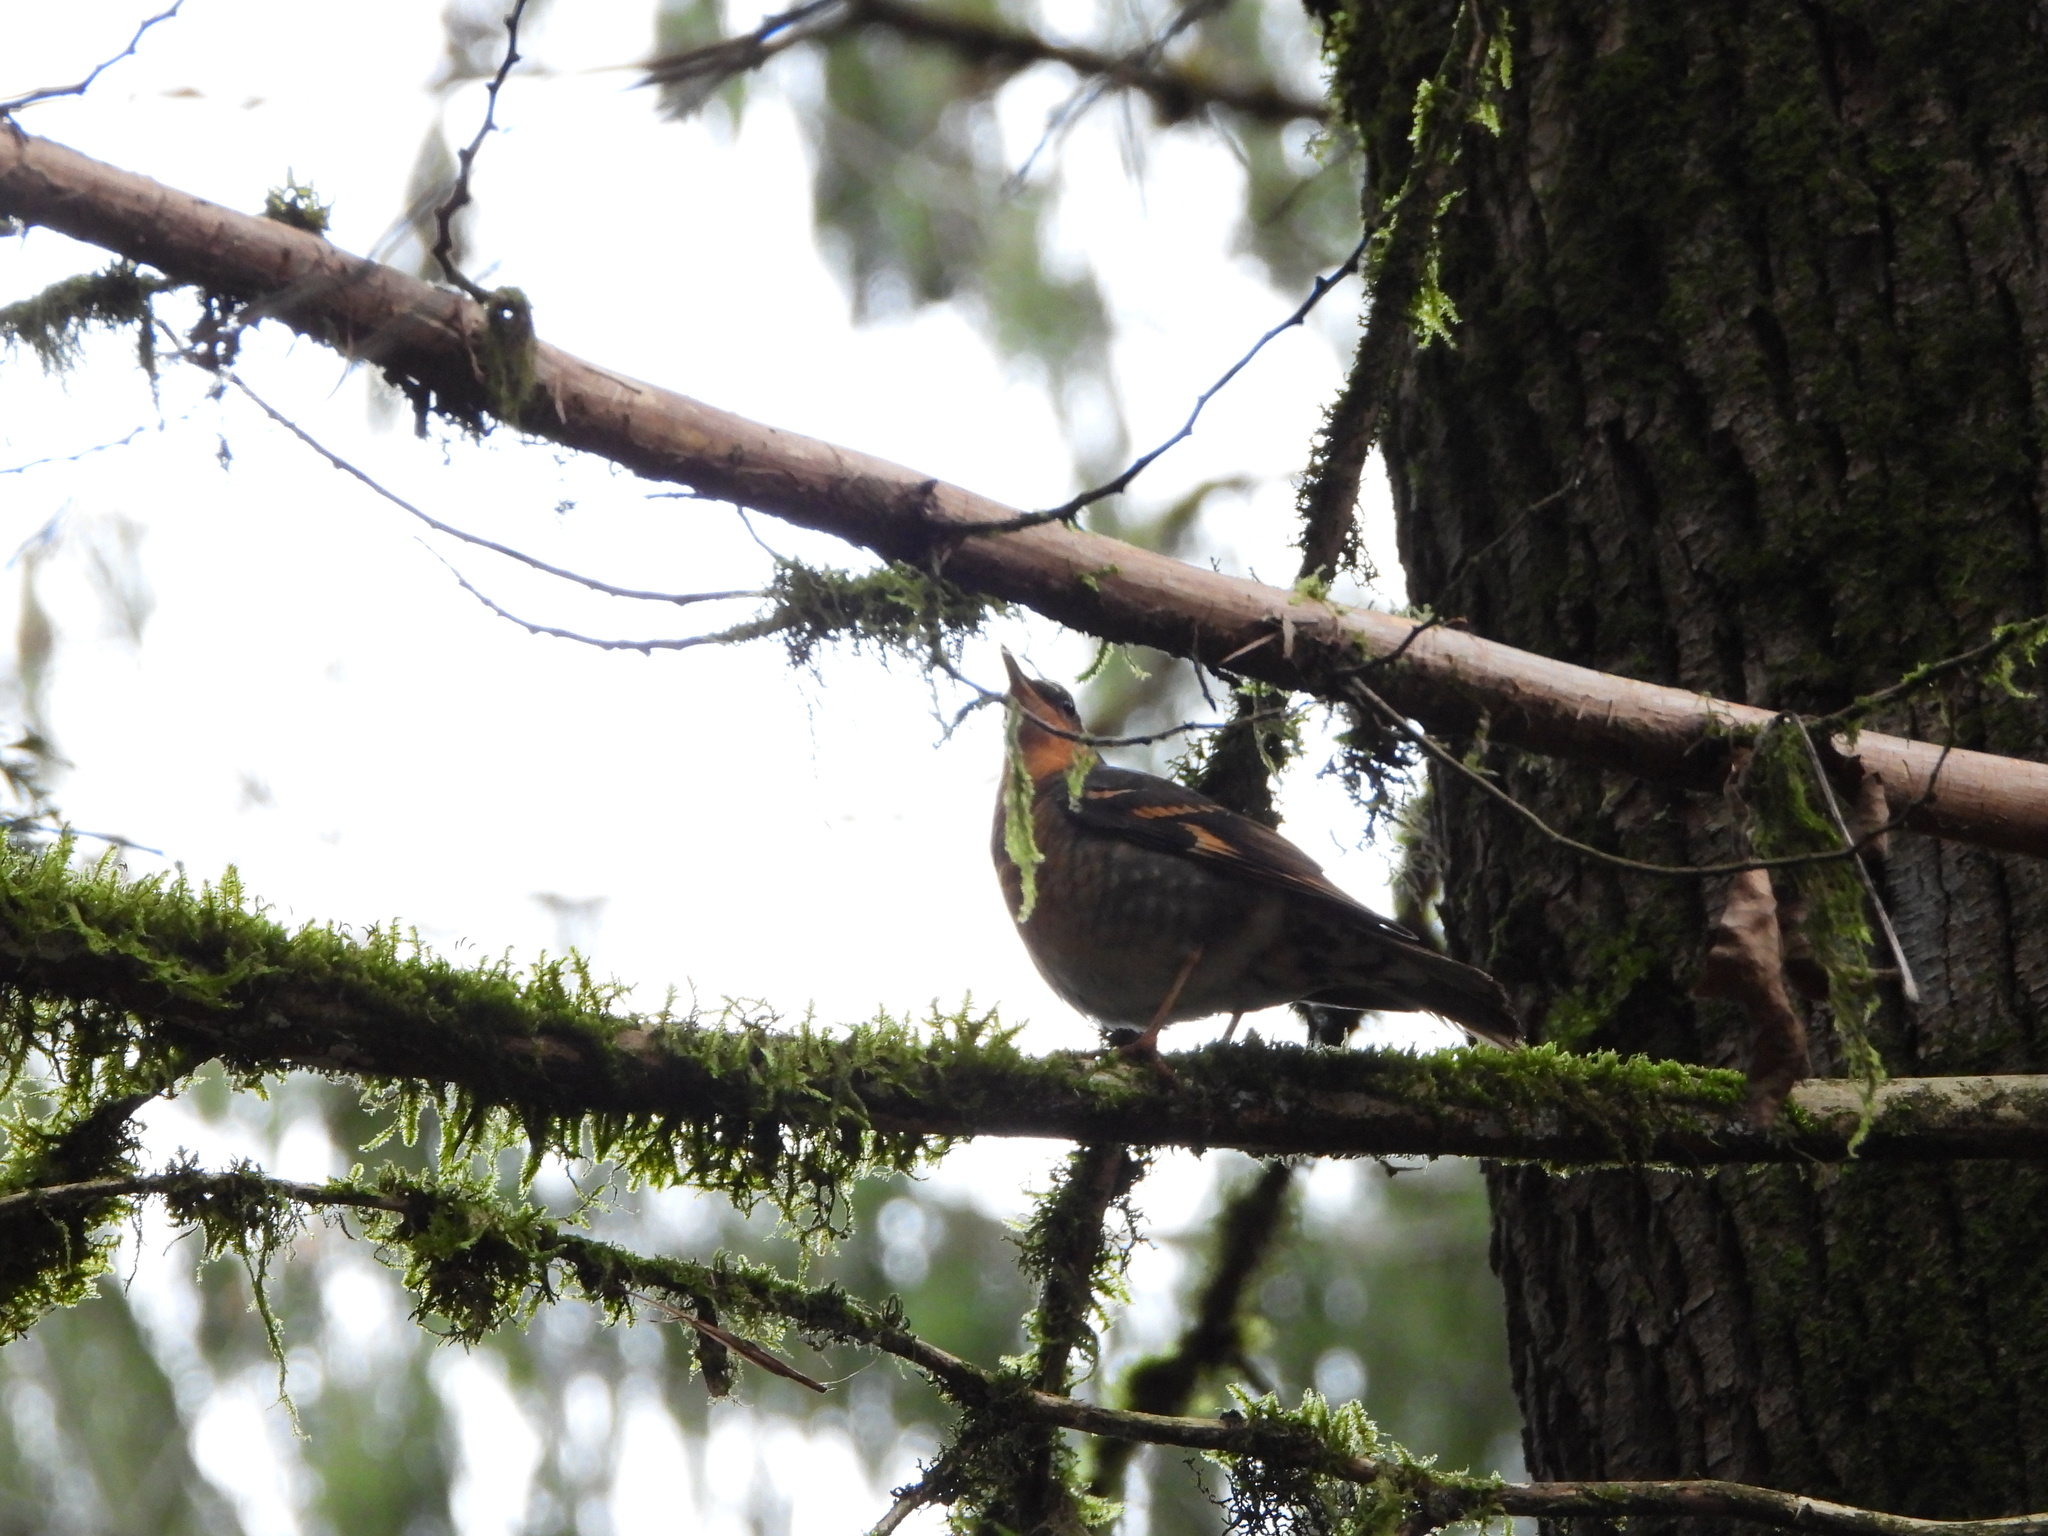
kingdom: Animalia
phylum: Chordata
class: Aves
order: Passeriformes
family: Turdidae
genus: Ixoreus
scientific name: Ixoreus naevius
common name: Varied thrush
